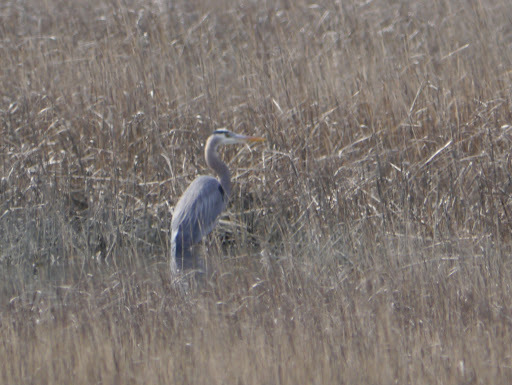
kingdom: Animalia
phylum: Chordata
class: Aves
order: Pelecaniformes
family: Ardeidae
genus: Ardea
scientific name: Ardea herodias
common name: Great blue heron
